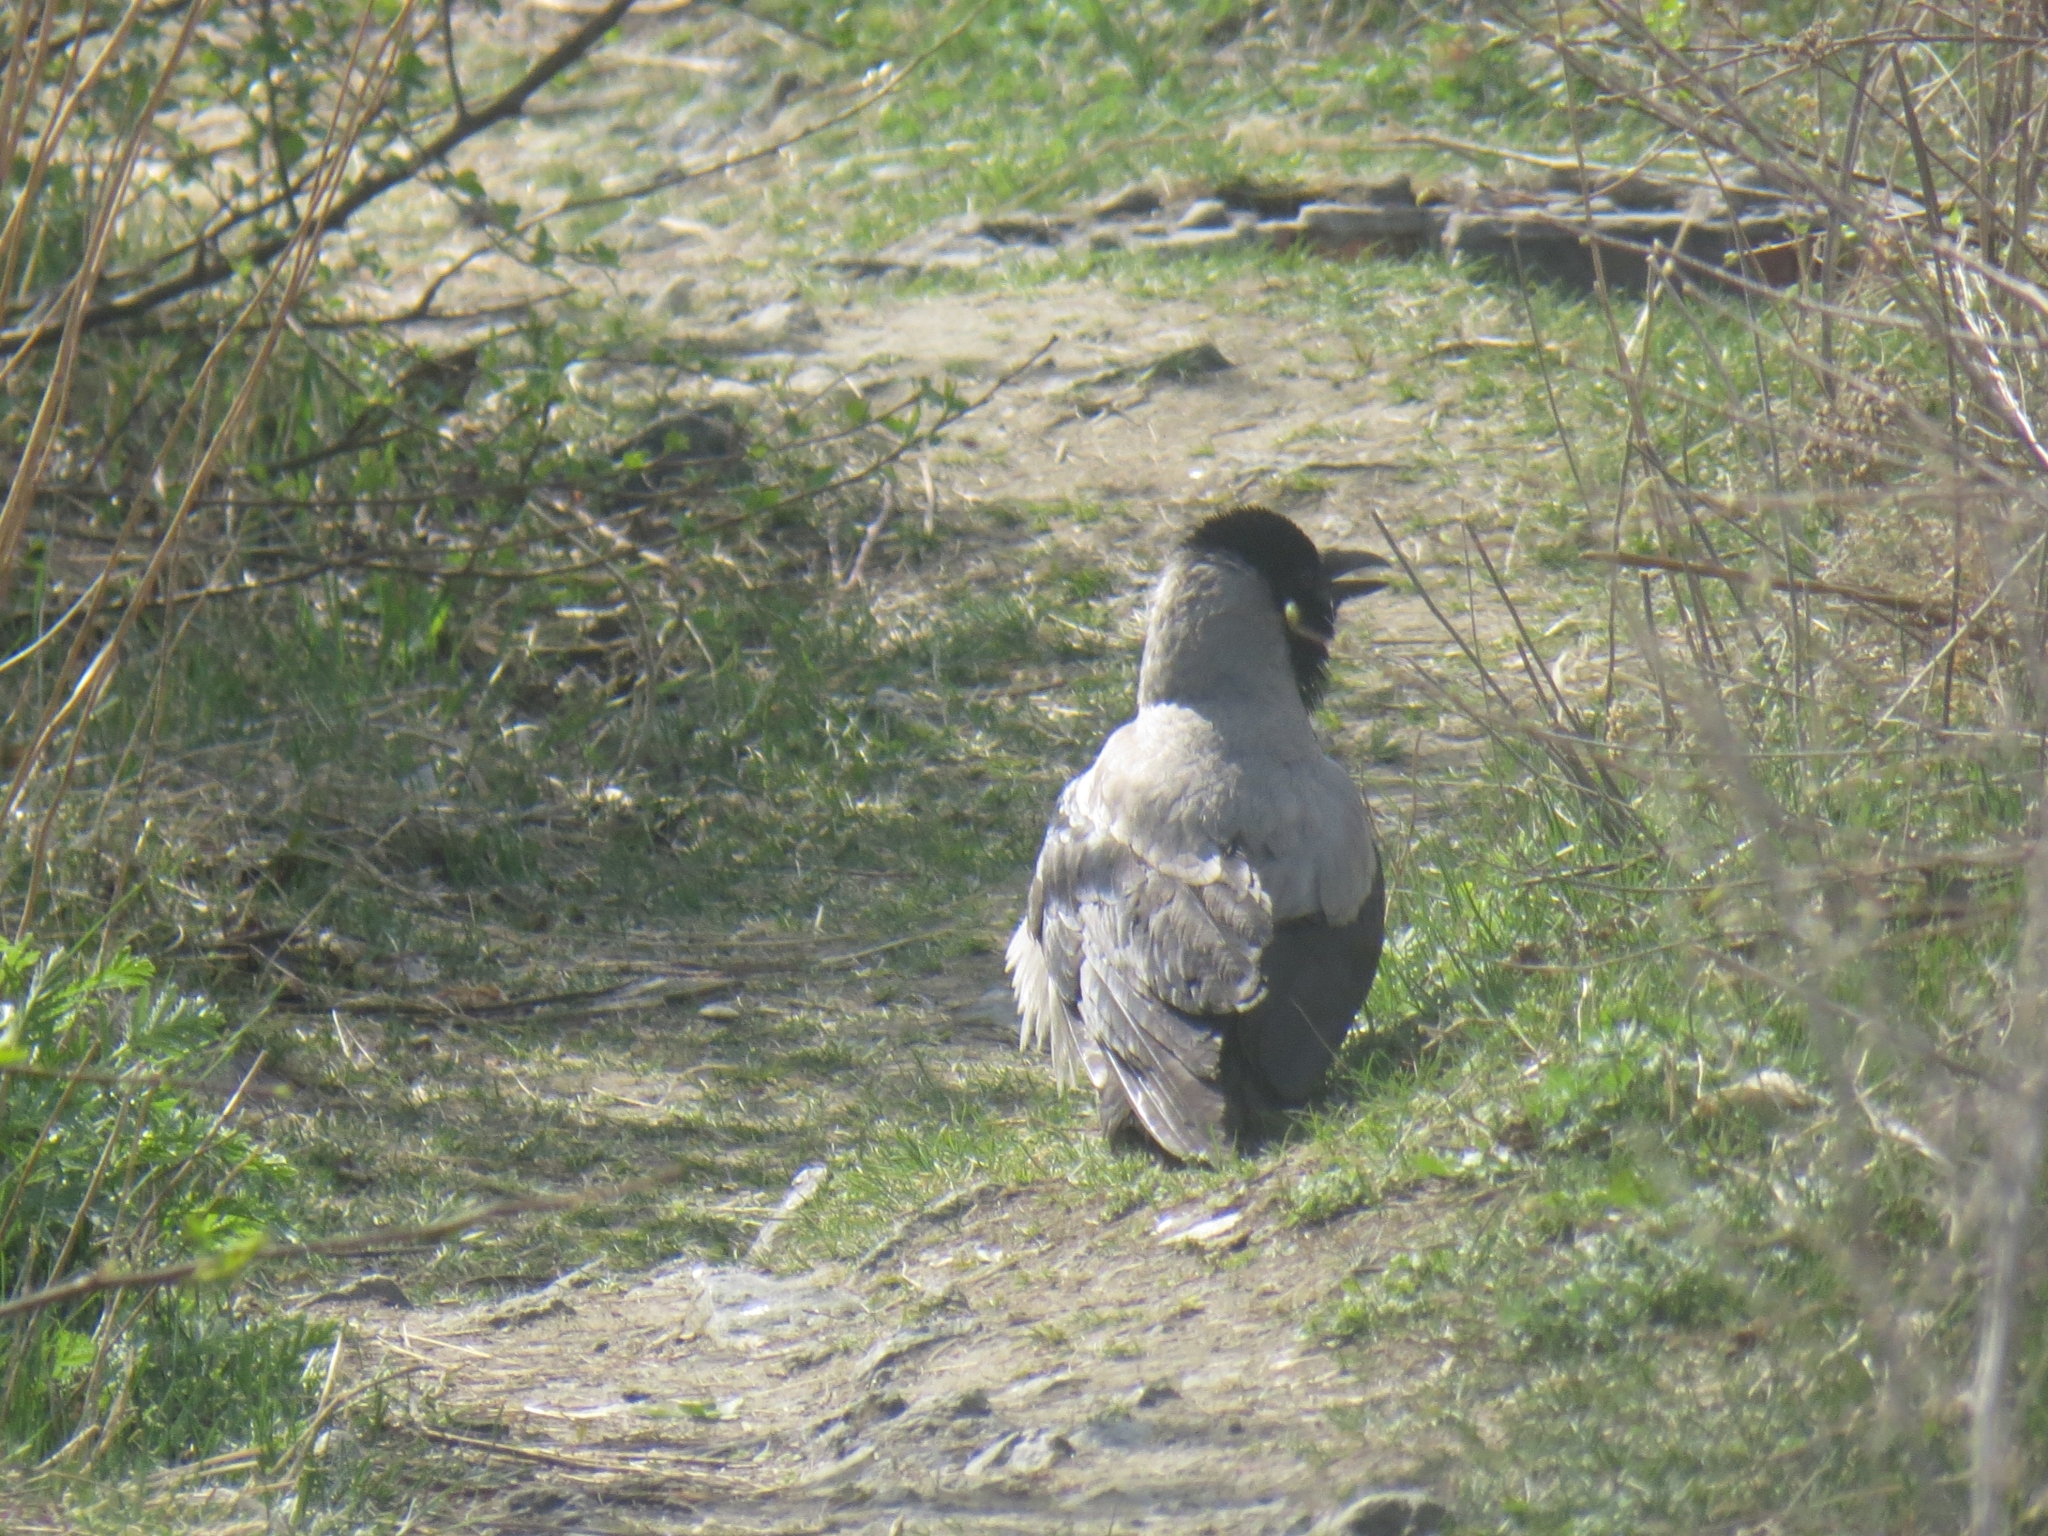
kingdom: Animalia
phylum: Chordata
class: Aves
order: Passeriformes
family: Corvidae
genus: Corvus
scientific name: Corvus cornix
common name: Hooded crow
